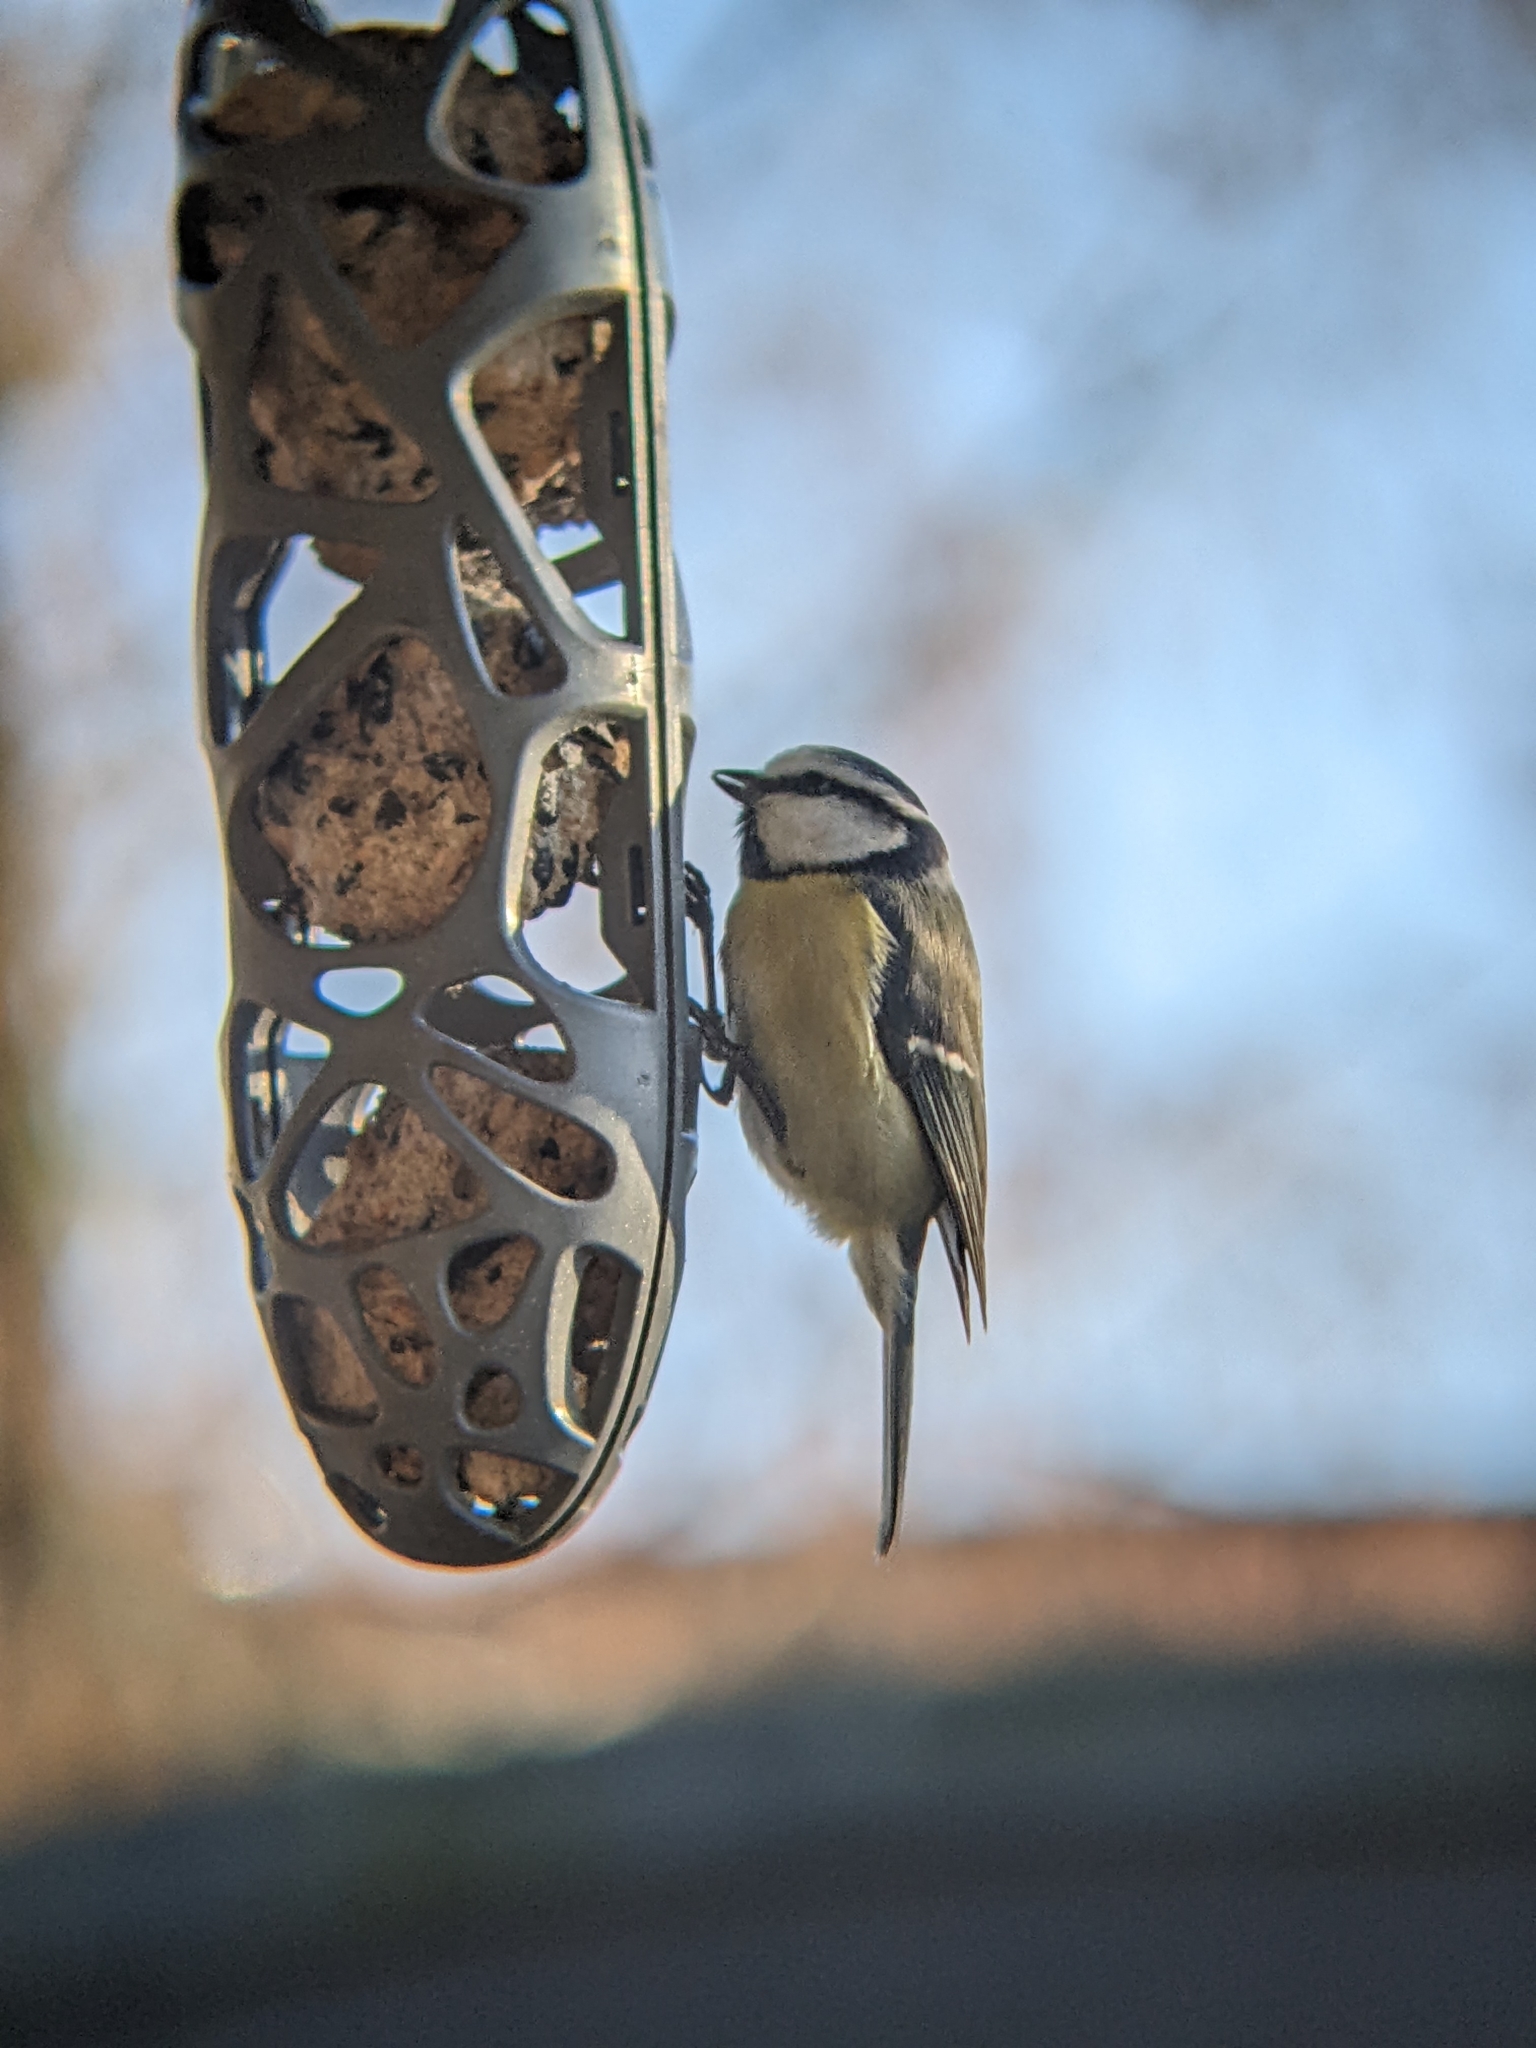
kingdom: Animalia
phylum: Chordata
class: Aves
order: Passeriformes
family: Paridae
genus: Cyanistes
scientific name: Cyanistes caeruleus
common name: Eurasian blue tit
